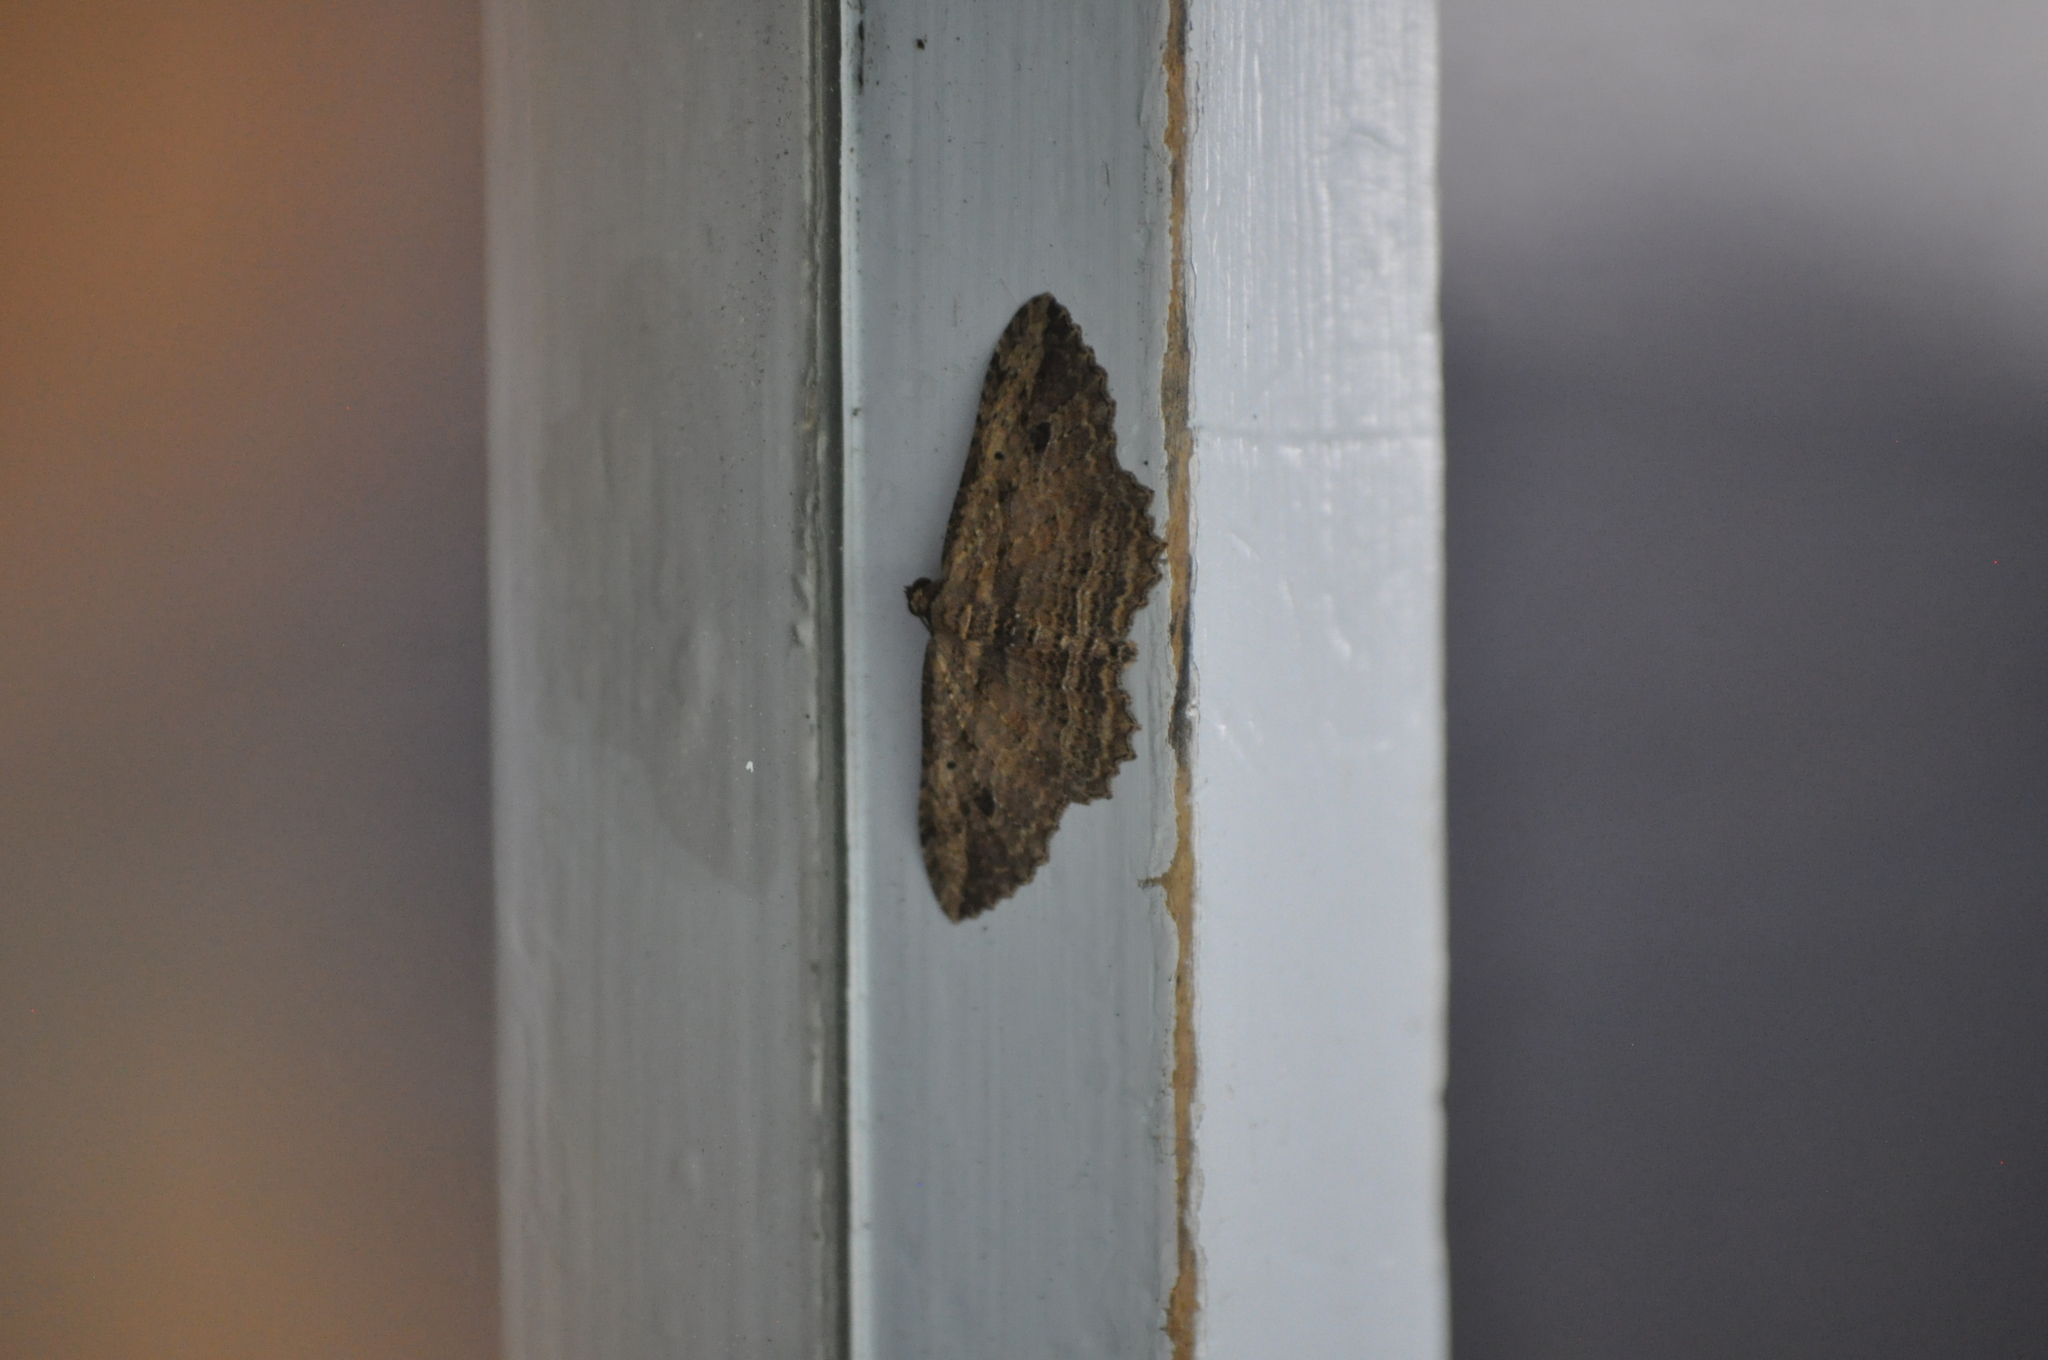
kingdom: Animalia
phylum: Arthropoda
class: Insecta
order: Lepidoptera
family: Geometridae
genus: Austrocidaria
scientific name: Austrocidaria bipartita
